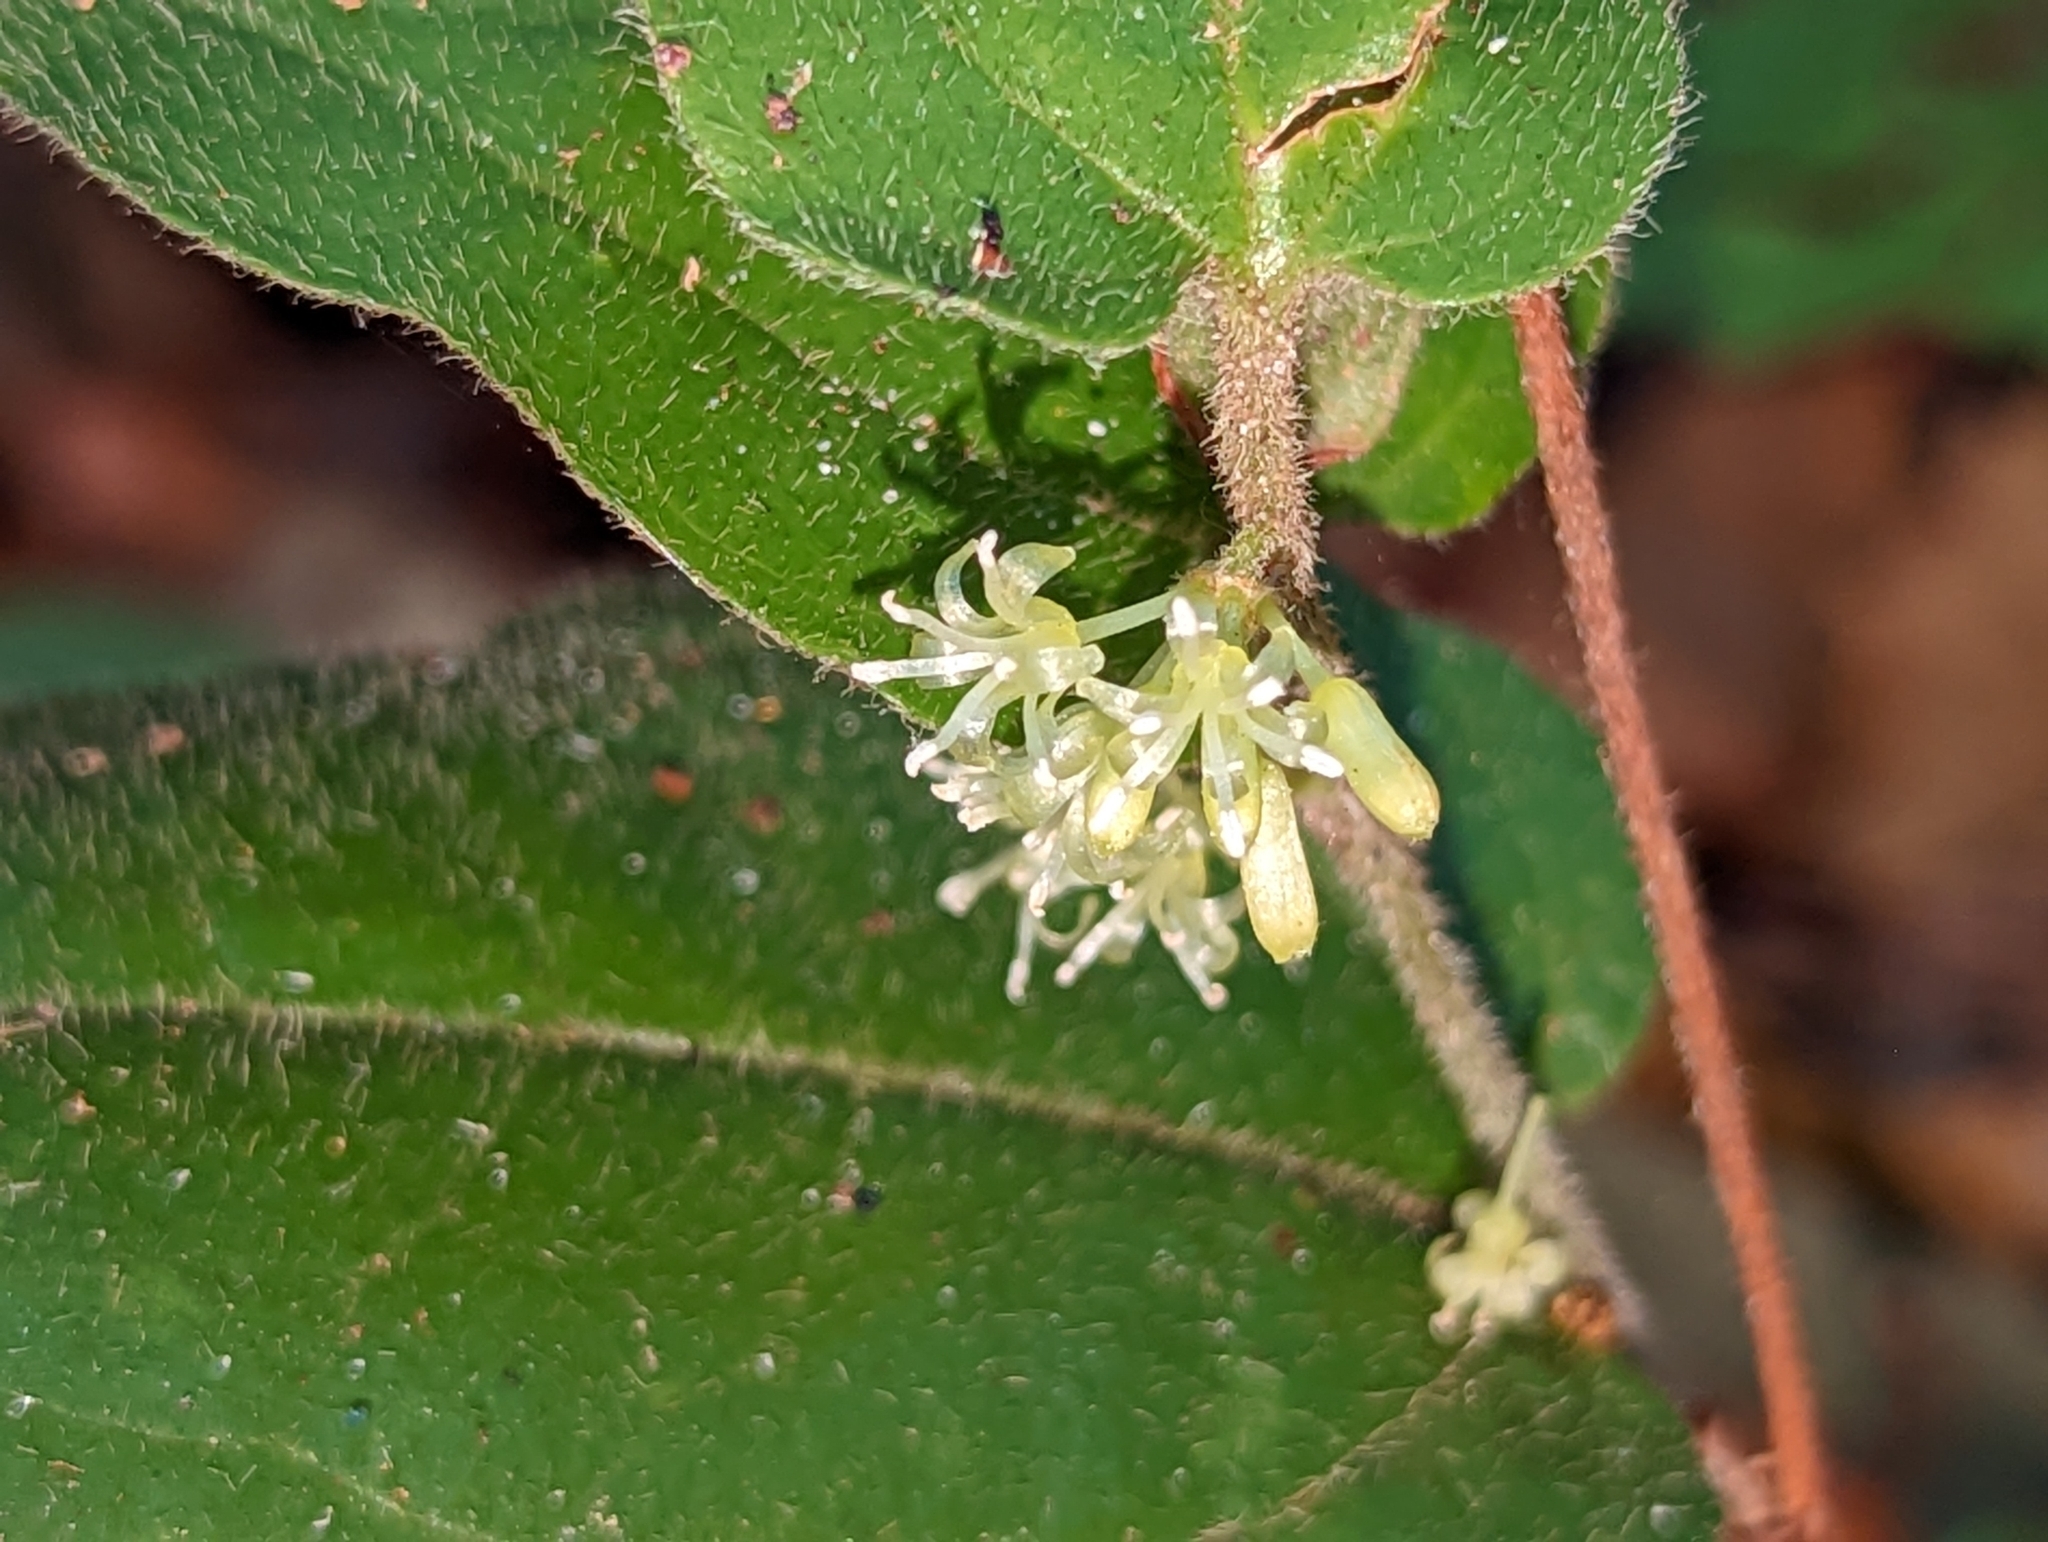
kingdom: Plantae
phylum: Tracheophyta
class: Liliopsida
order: Liliales
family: Smilacaceae
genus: Smilax
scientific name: Smilax pumila
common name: Sarsaparilla-vine
